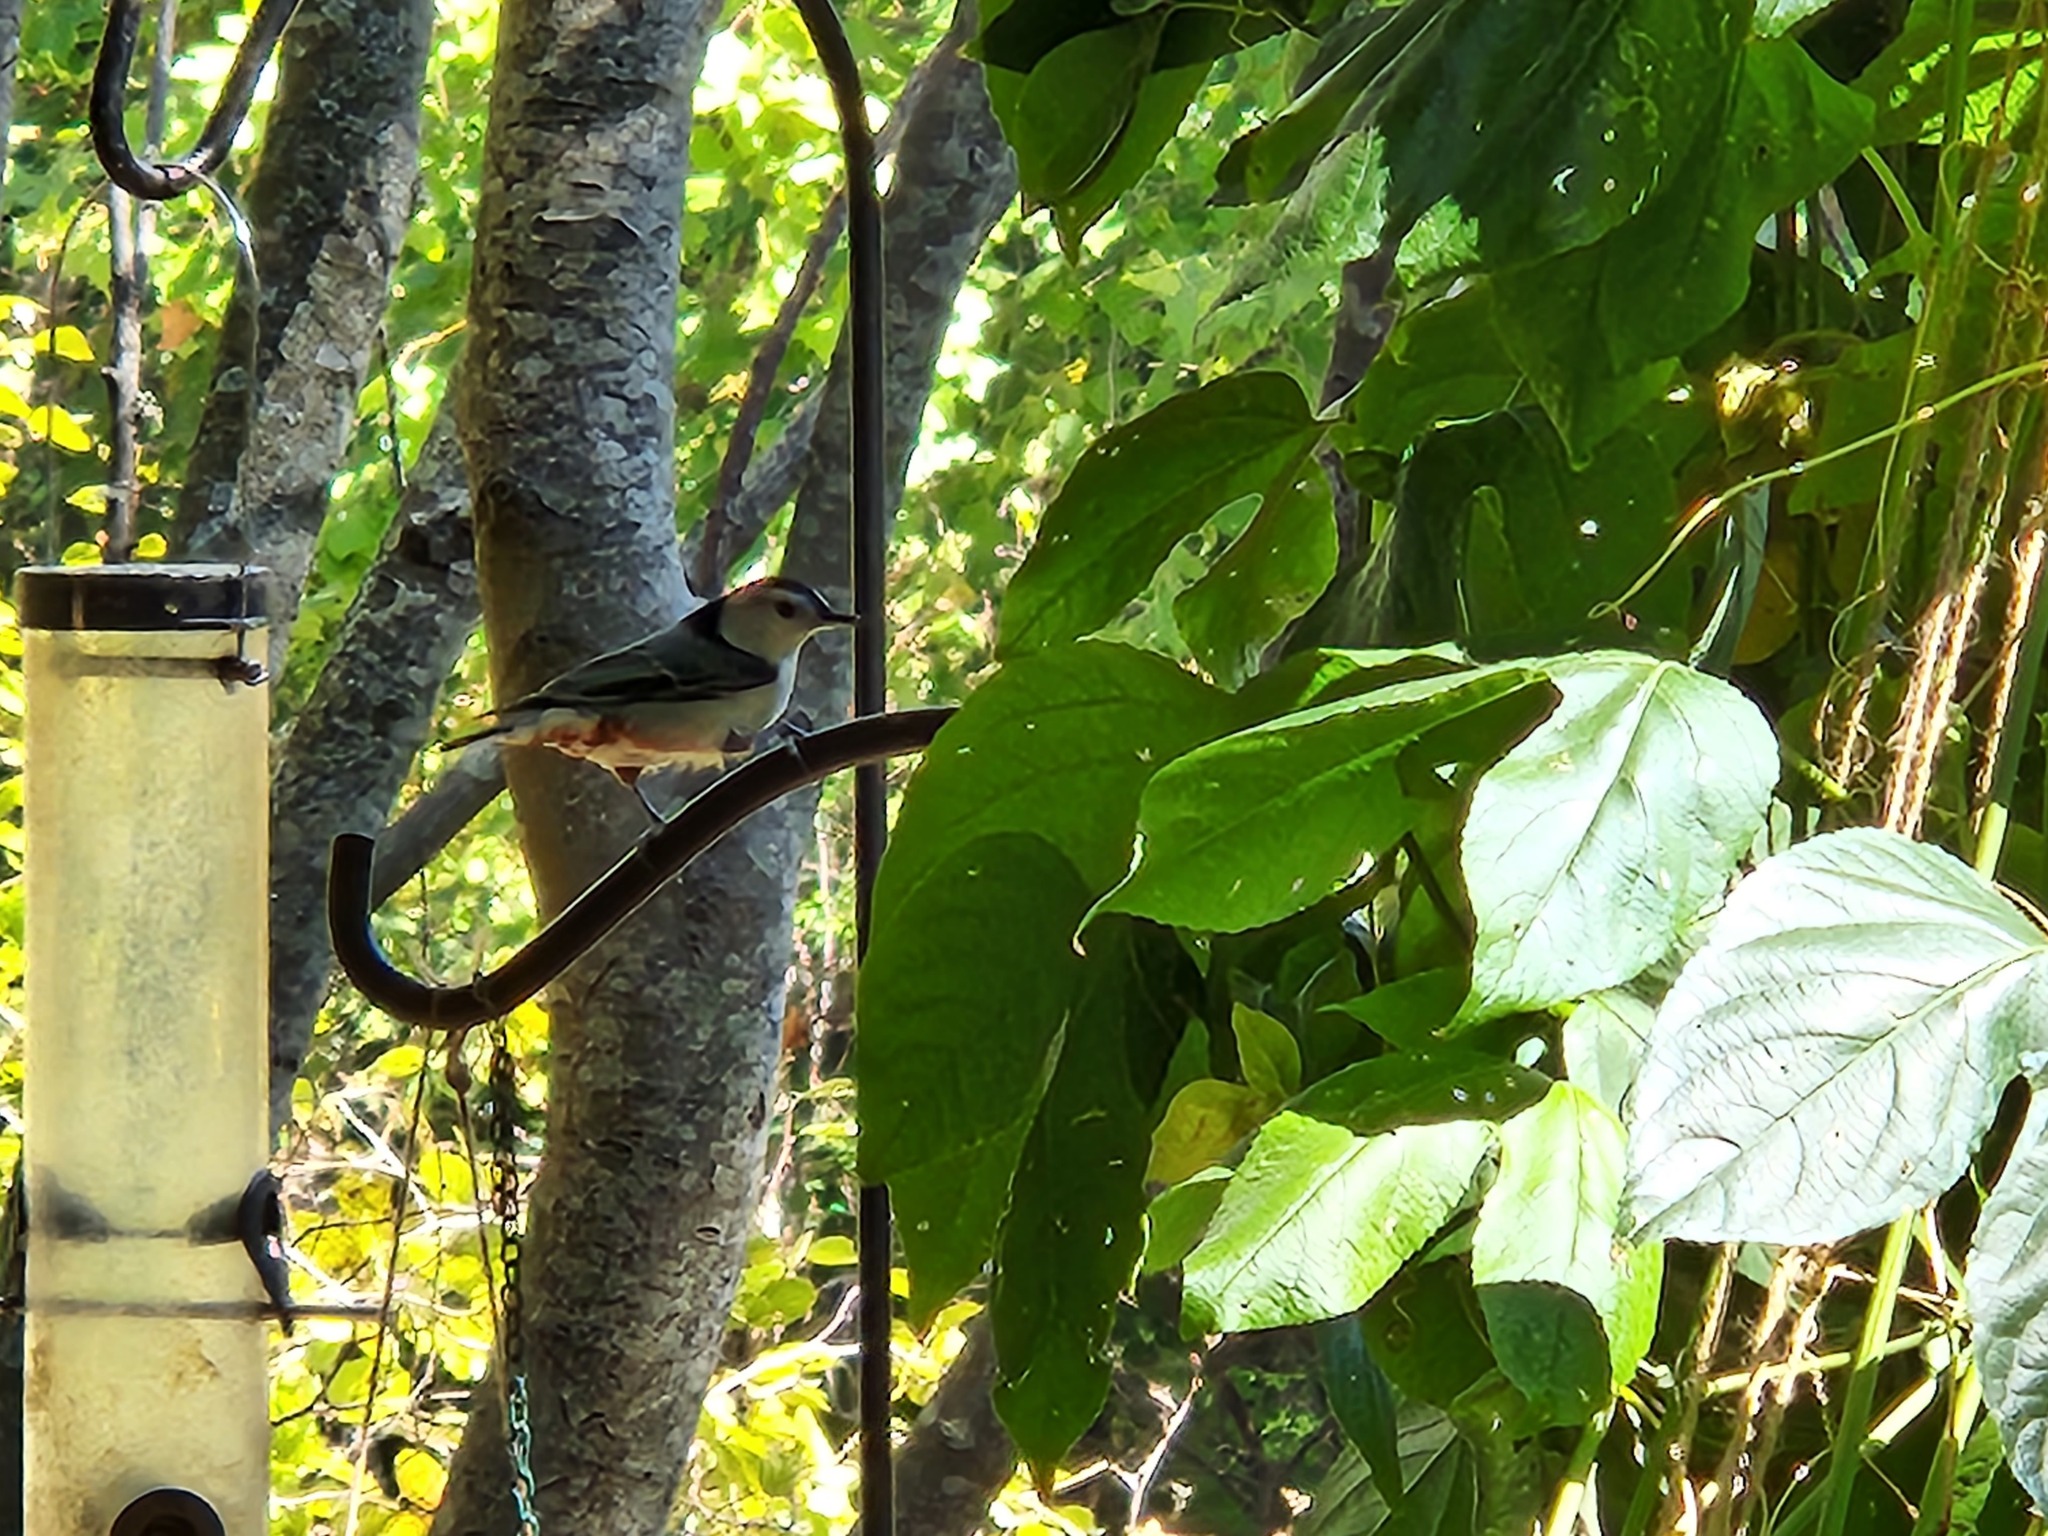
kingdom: Animalia
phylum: Chordata
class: Aves
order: Passeriformes
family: Sittidae
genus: Sitta
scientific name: Sitta carolinensis
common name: White-breasted nuthatch
